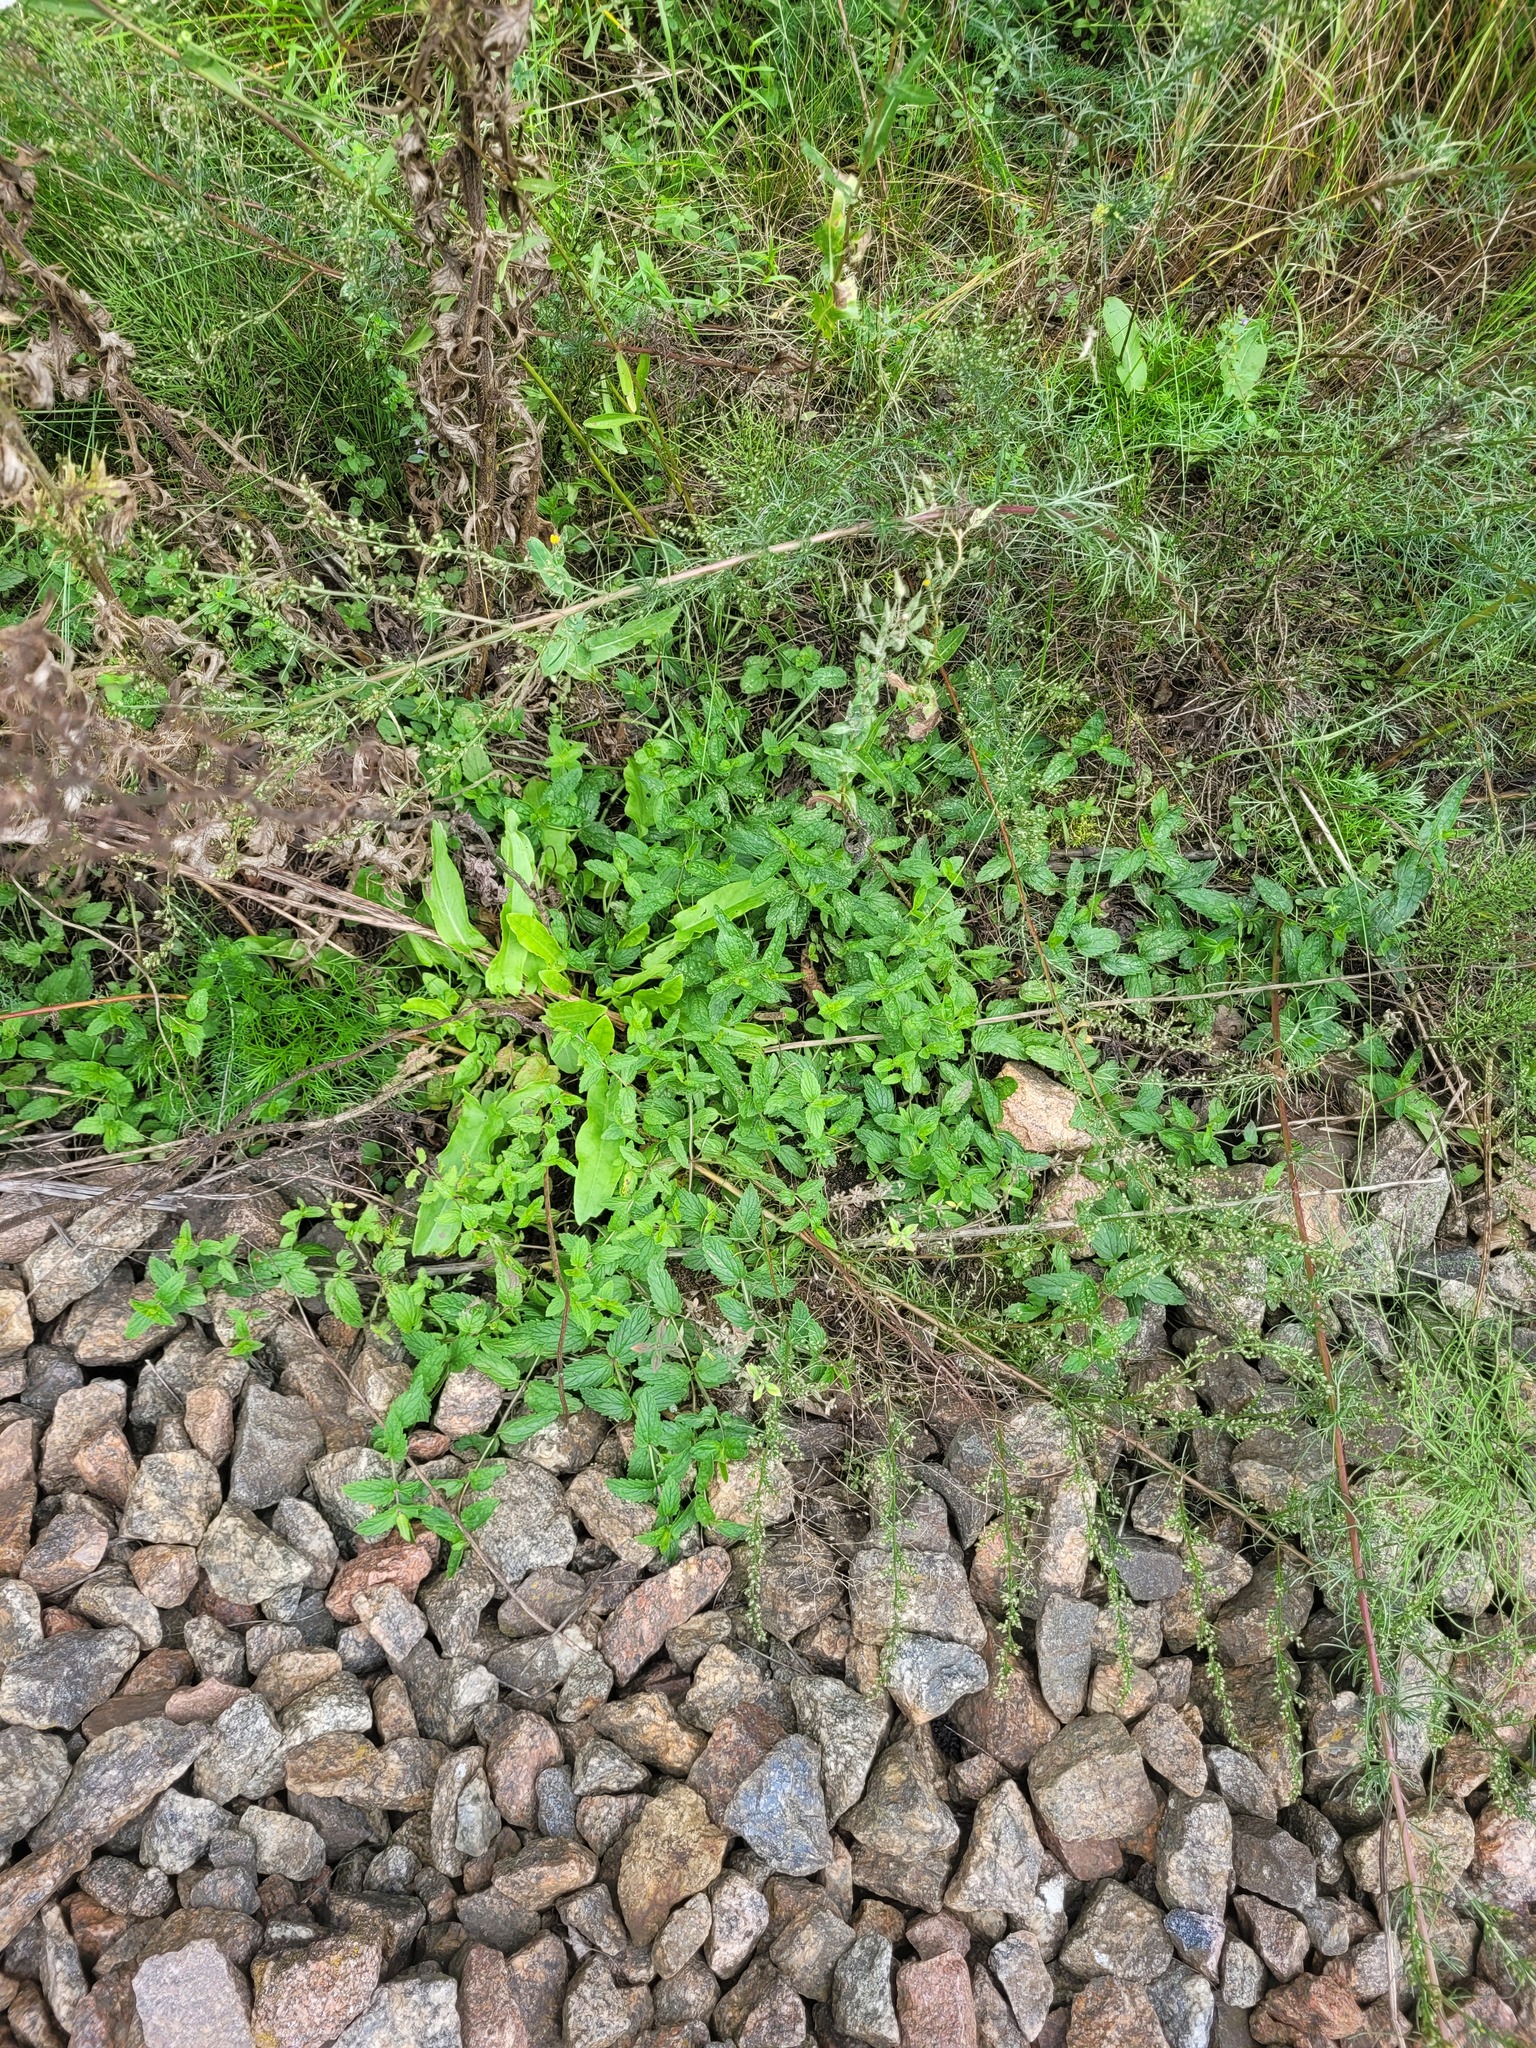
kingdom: Plantae
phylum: Tracheophyta
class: Magnoliopsida
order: Lamiales
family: Plantaginaceae
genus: Veronica
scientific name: Veronica chamaedrys
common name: Germander speedwell
